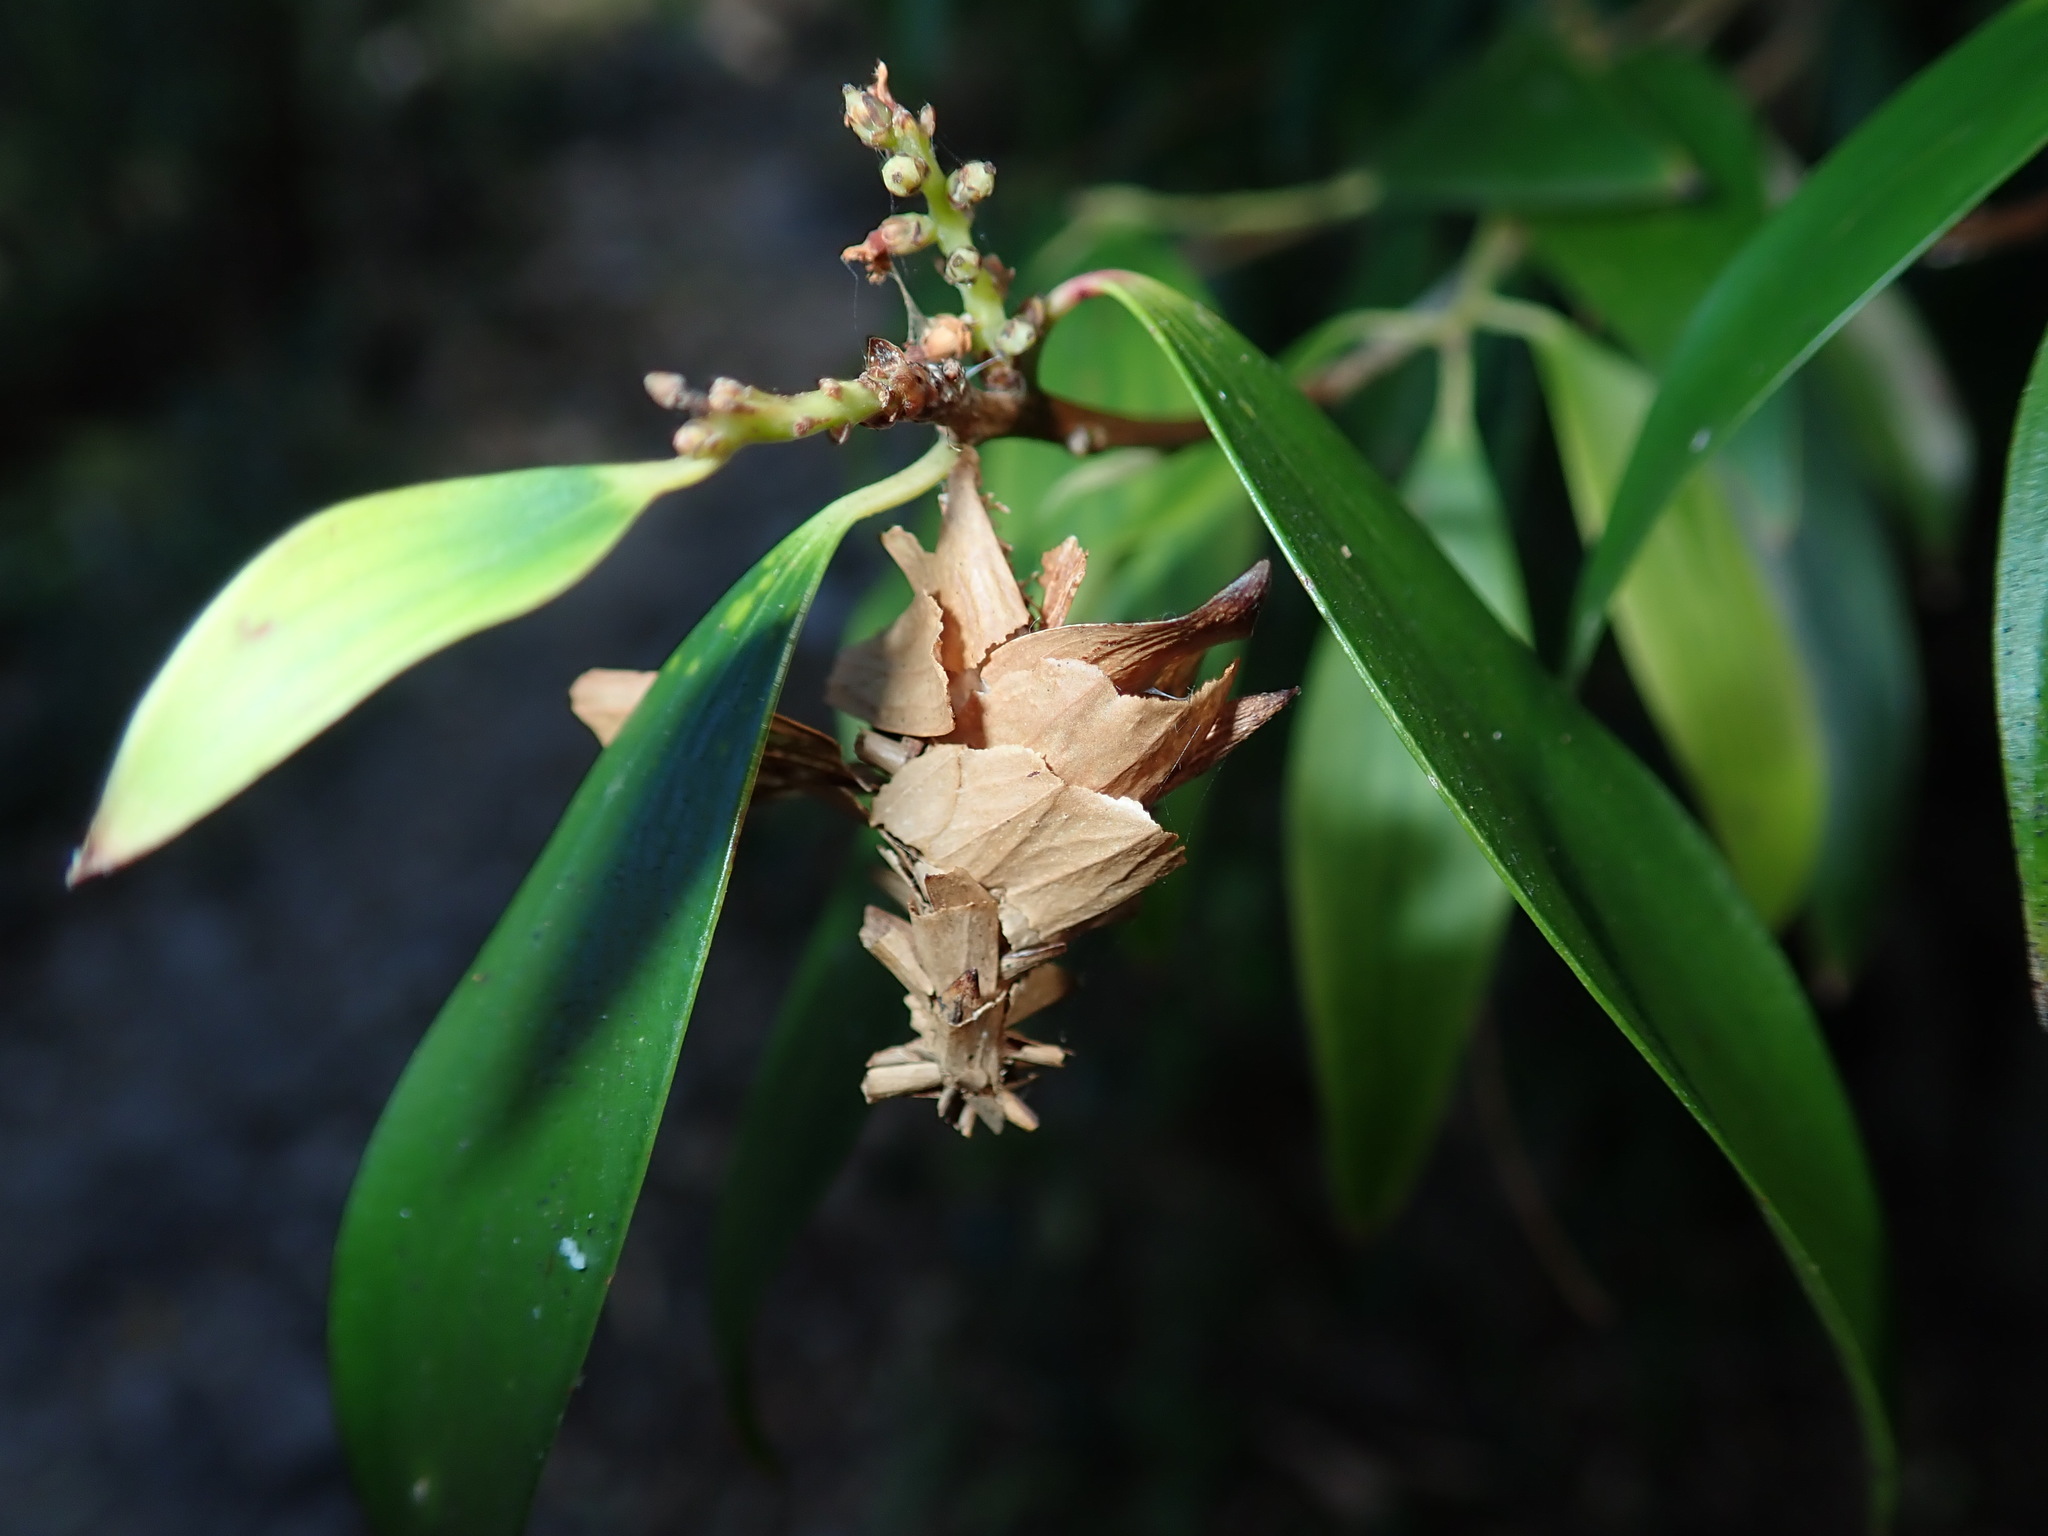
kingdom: Animalia
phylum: Arthropoda
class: Insecta
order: Lepidoptera
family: Psychidae
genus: Hyalarcta
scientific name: Hyalarcta huebneri
